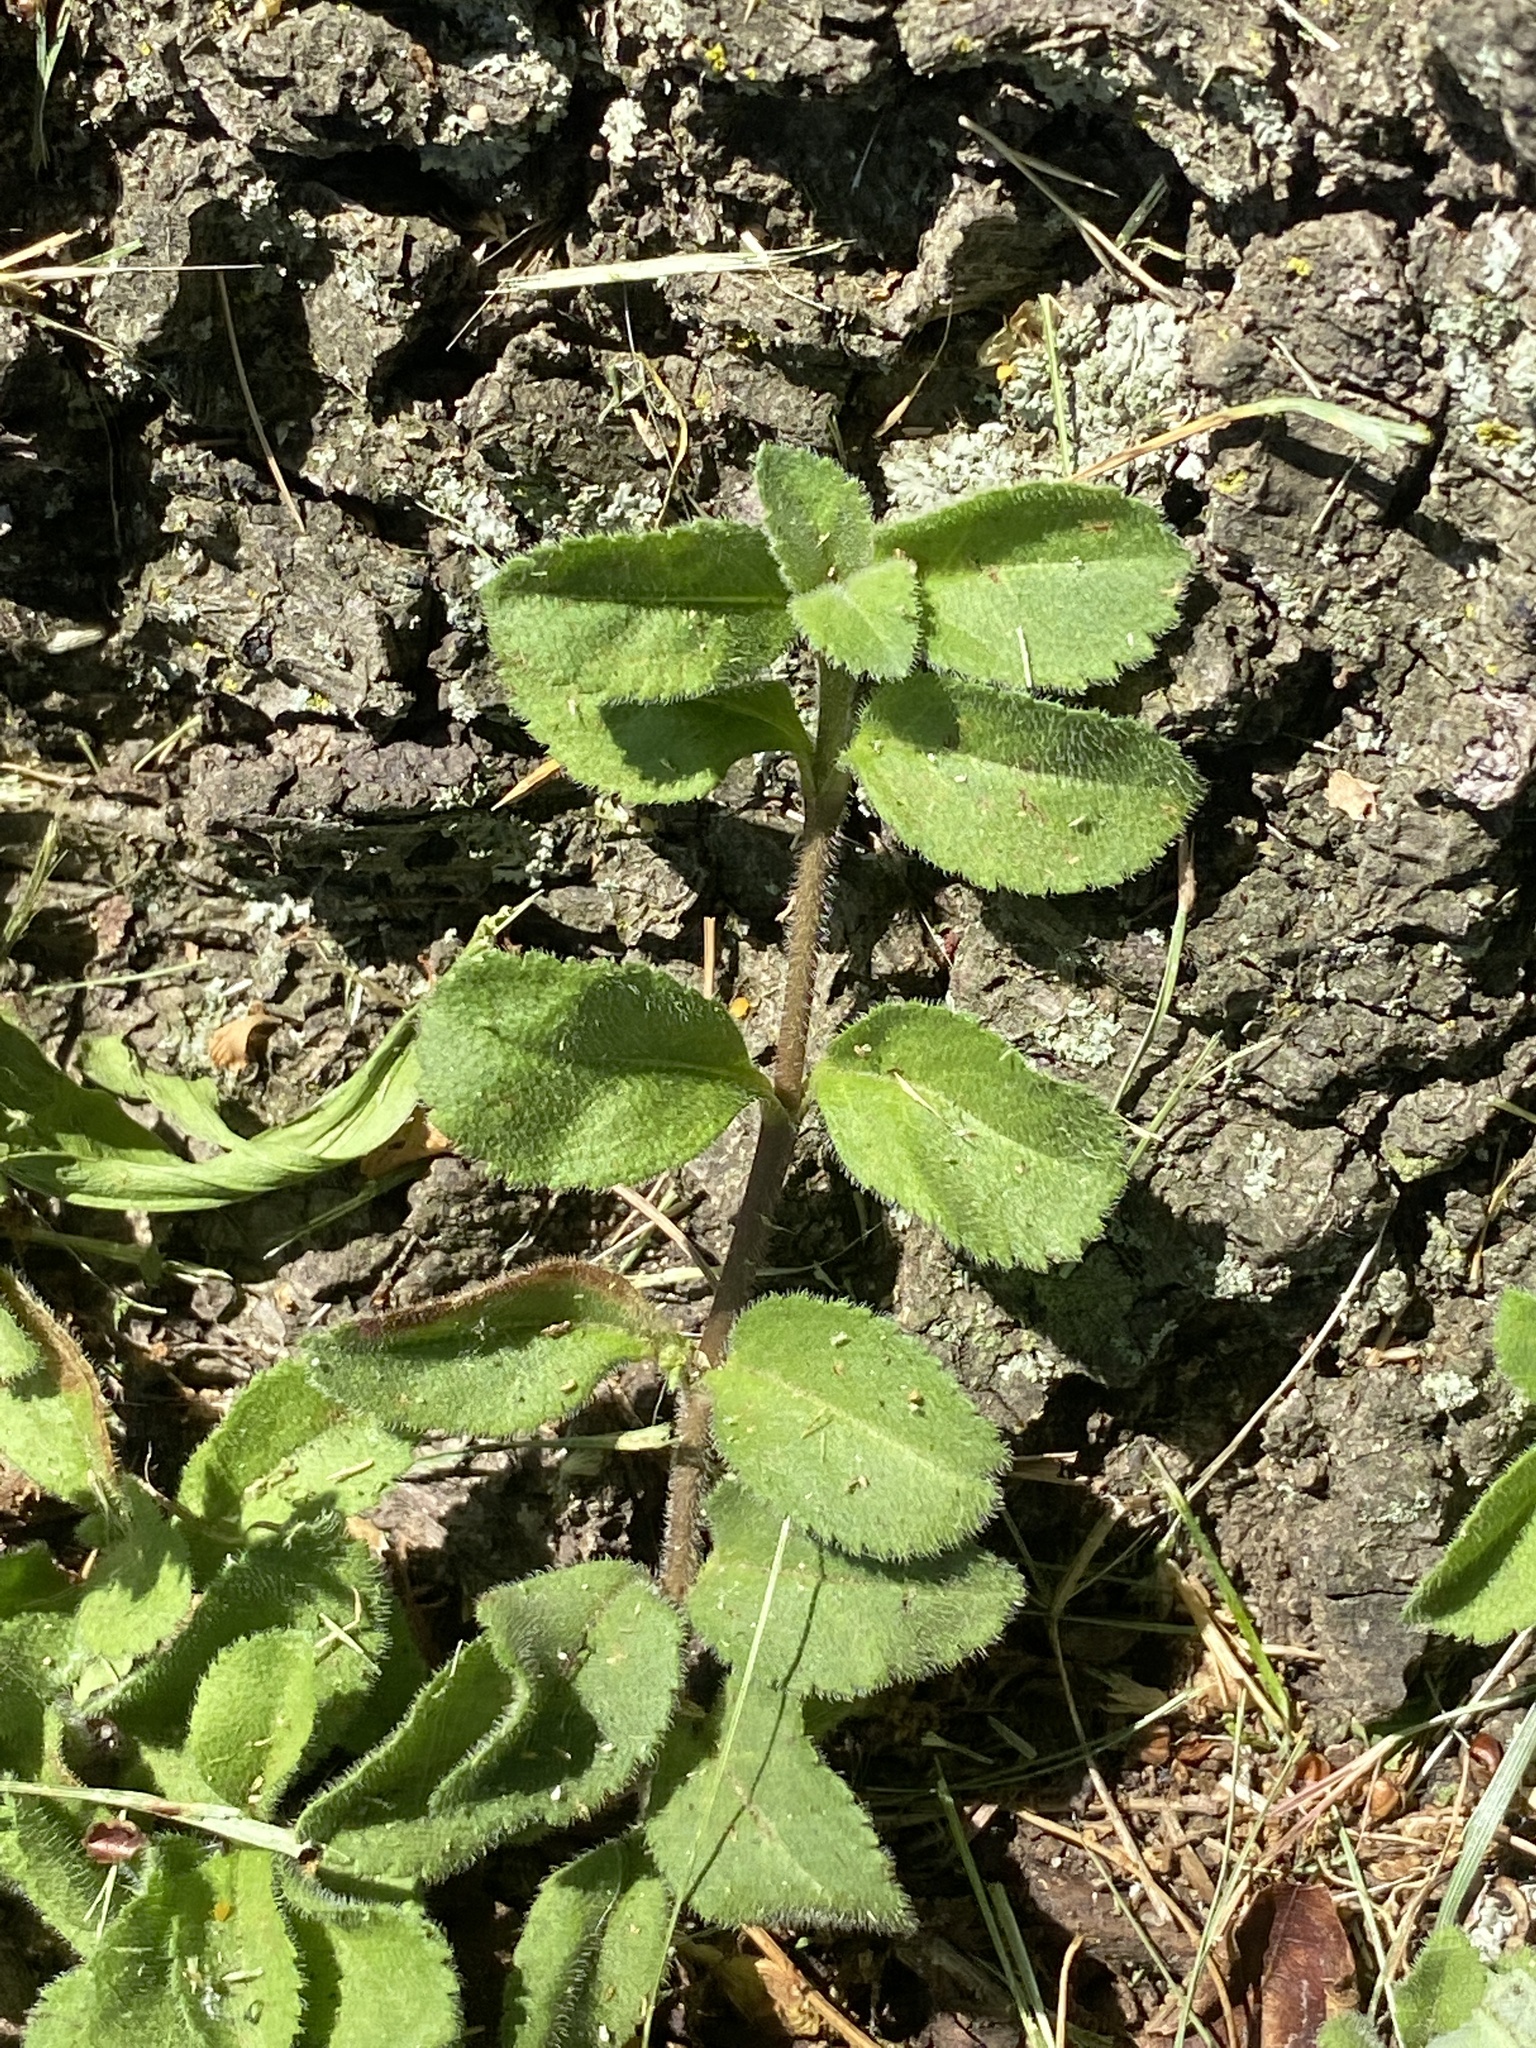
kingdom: Plantae
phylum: Tracheophyta
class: Magnoliopsida
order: Lamiales
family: Plantaginaceae
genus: Veronica
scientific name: Veronica officinalis
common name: Common speedwell
